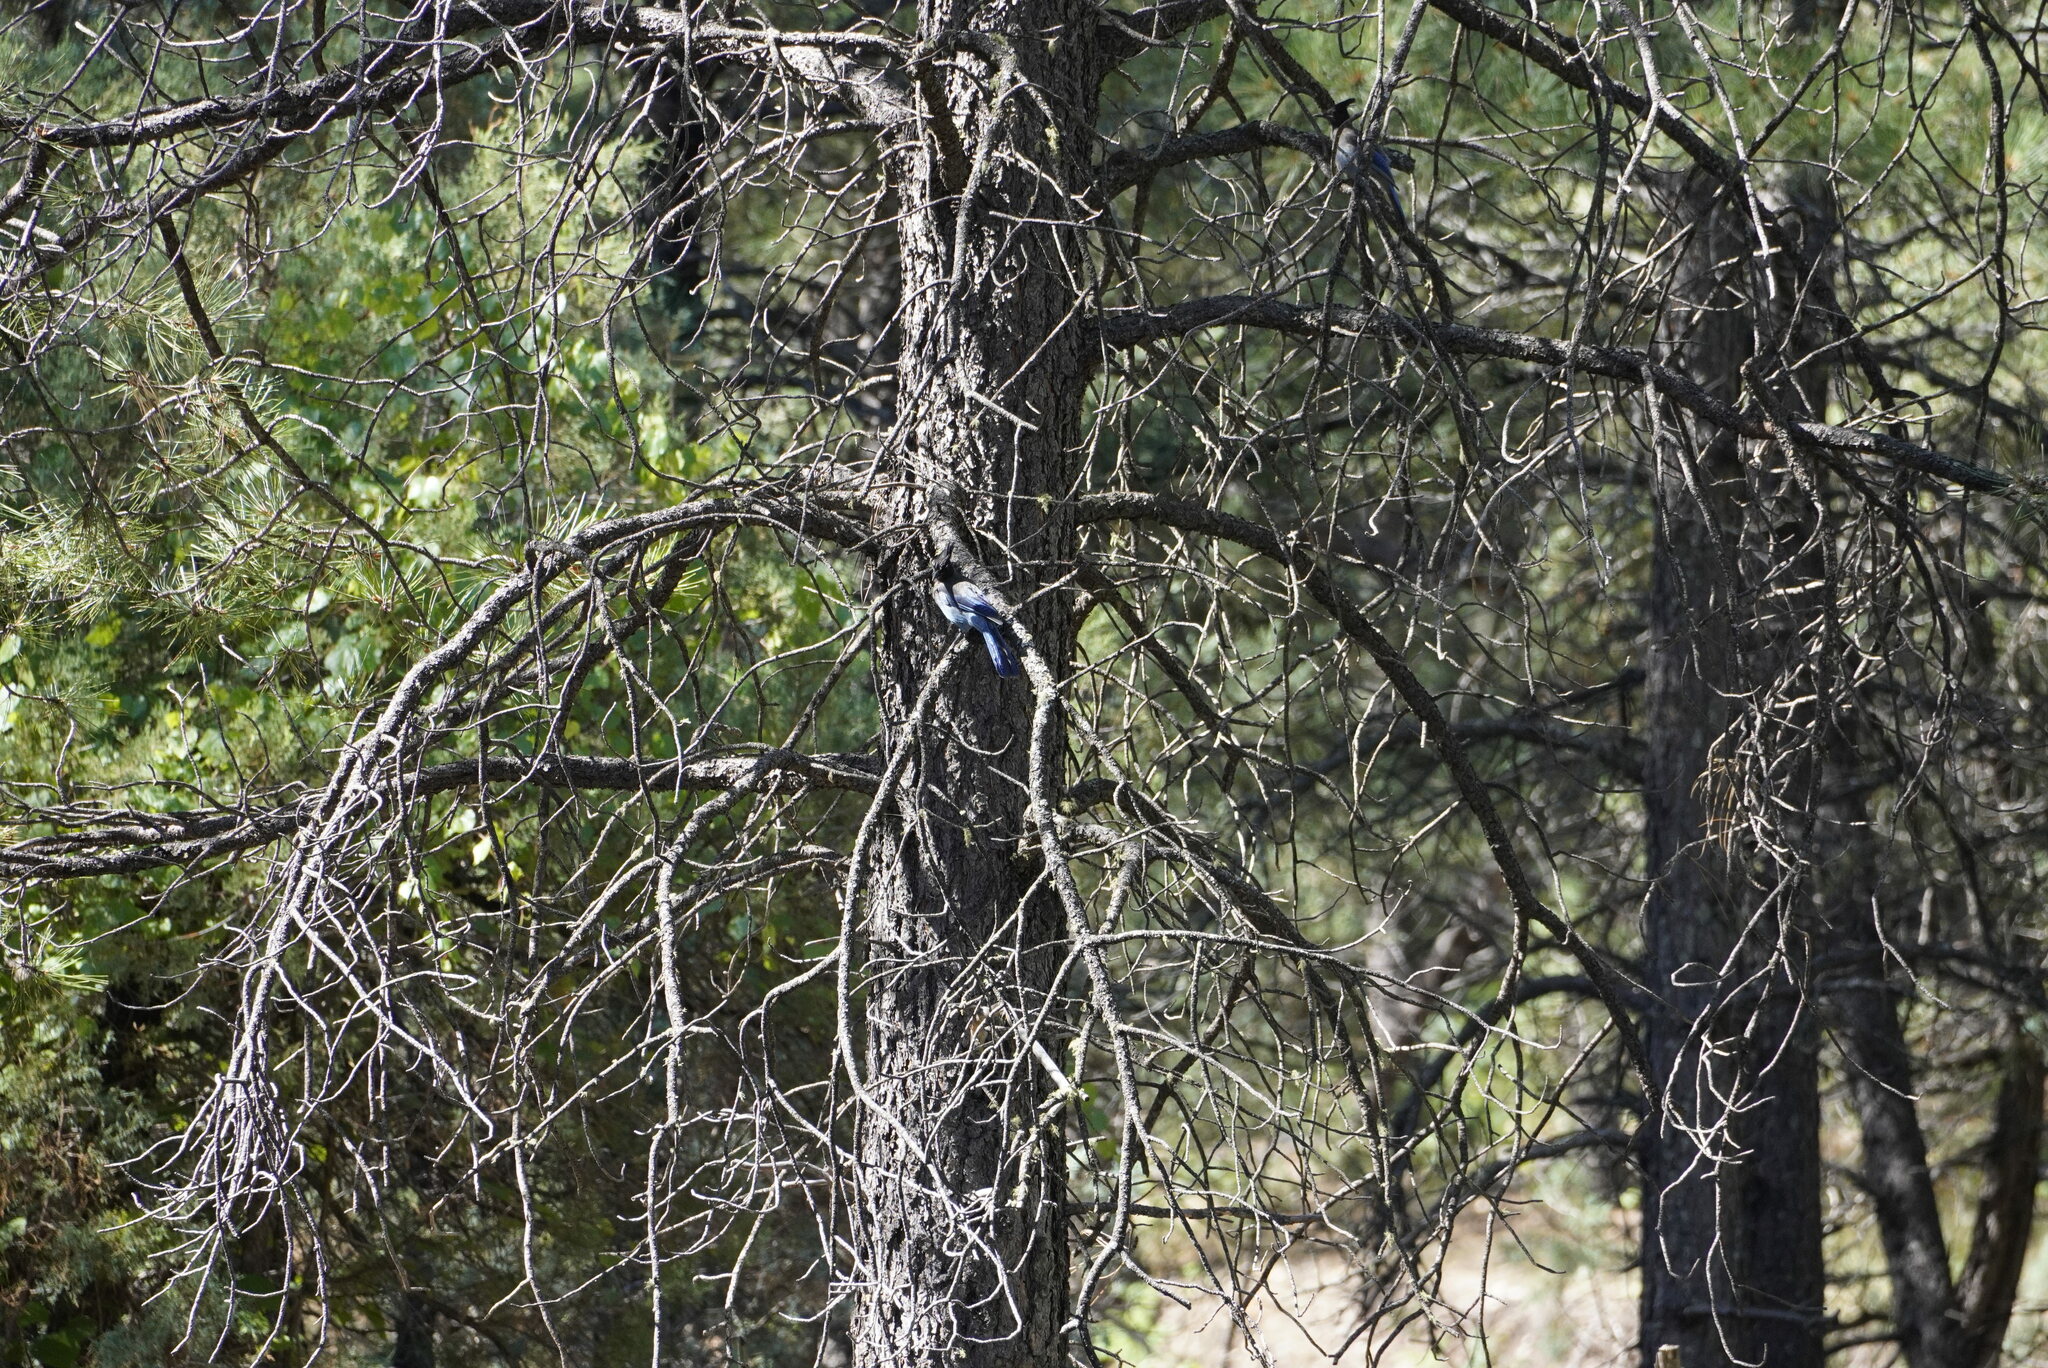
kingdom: Animalia
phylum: Chordata
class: Aves
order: Passeriformes
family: Corvidae
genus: Cyanocitta
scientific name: Cyanocitta stelleri
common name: Steller's jay
